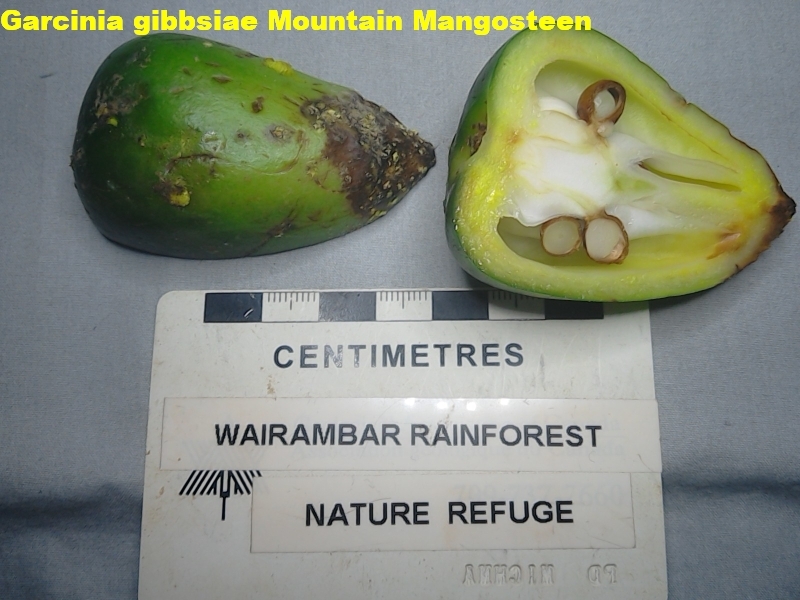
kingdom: Plantae
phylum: Tracheophyta
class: Magnoliopsida
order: Malpighiales
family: Clusiaceae
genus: Garcinia
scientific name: Garcinia gibbsiae
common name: Mountain mangosteen
